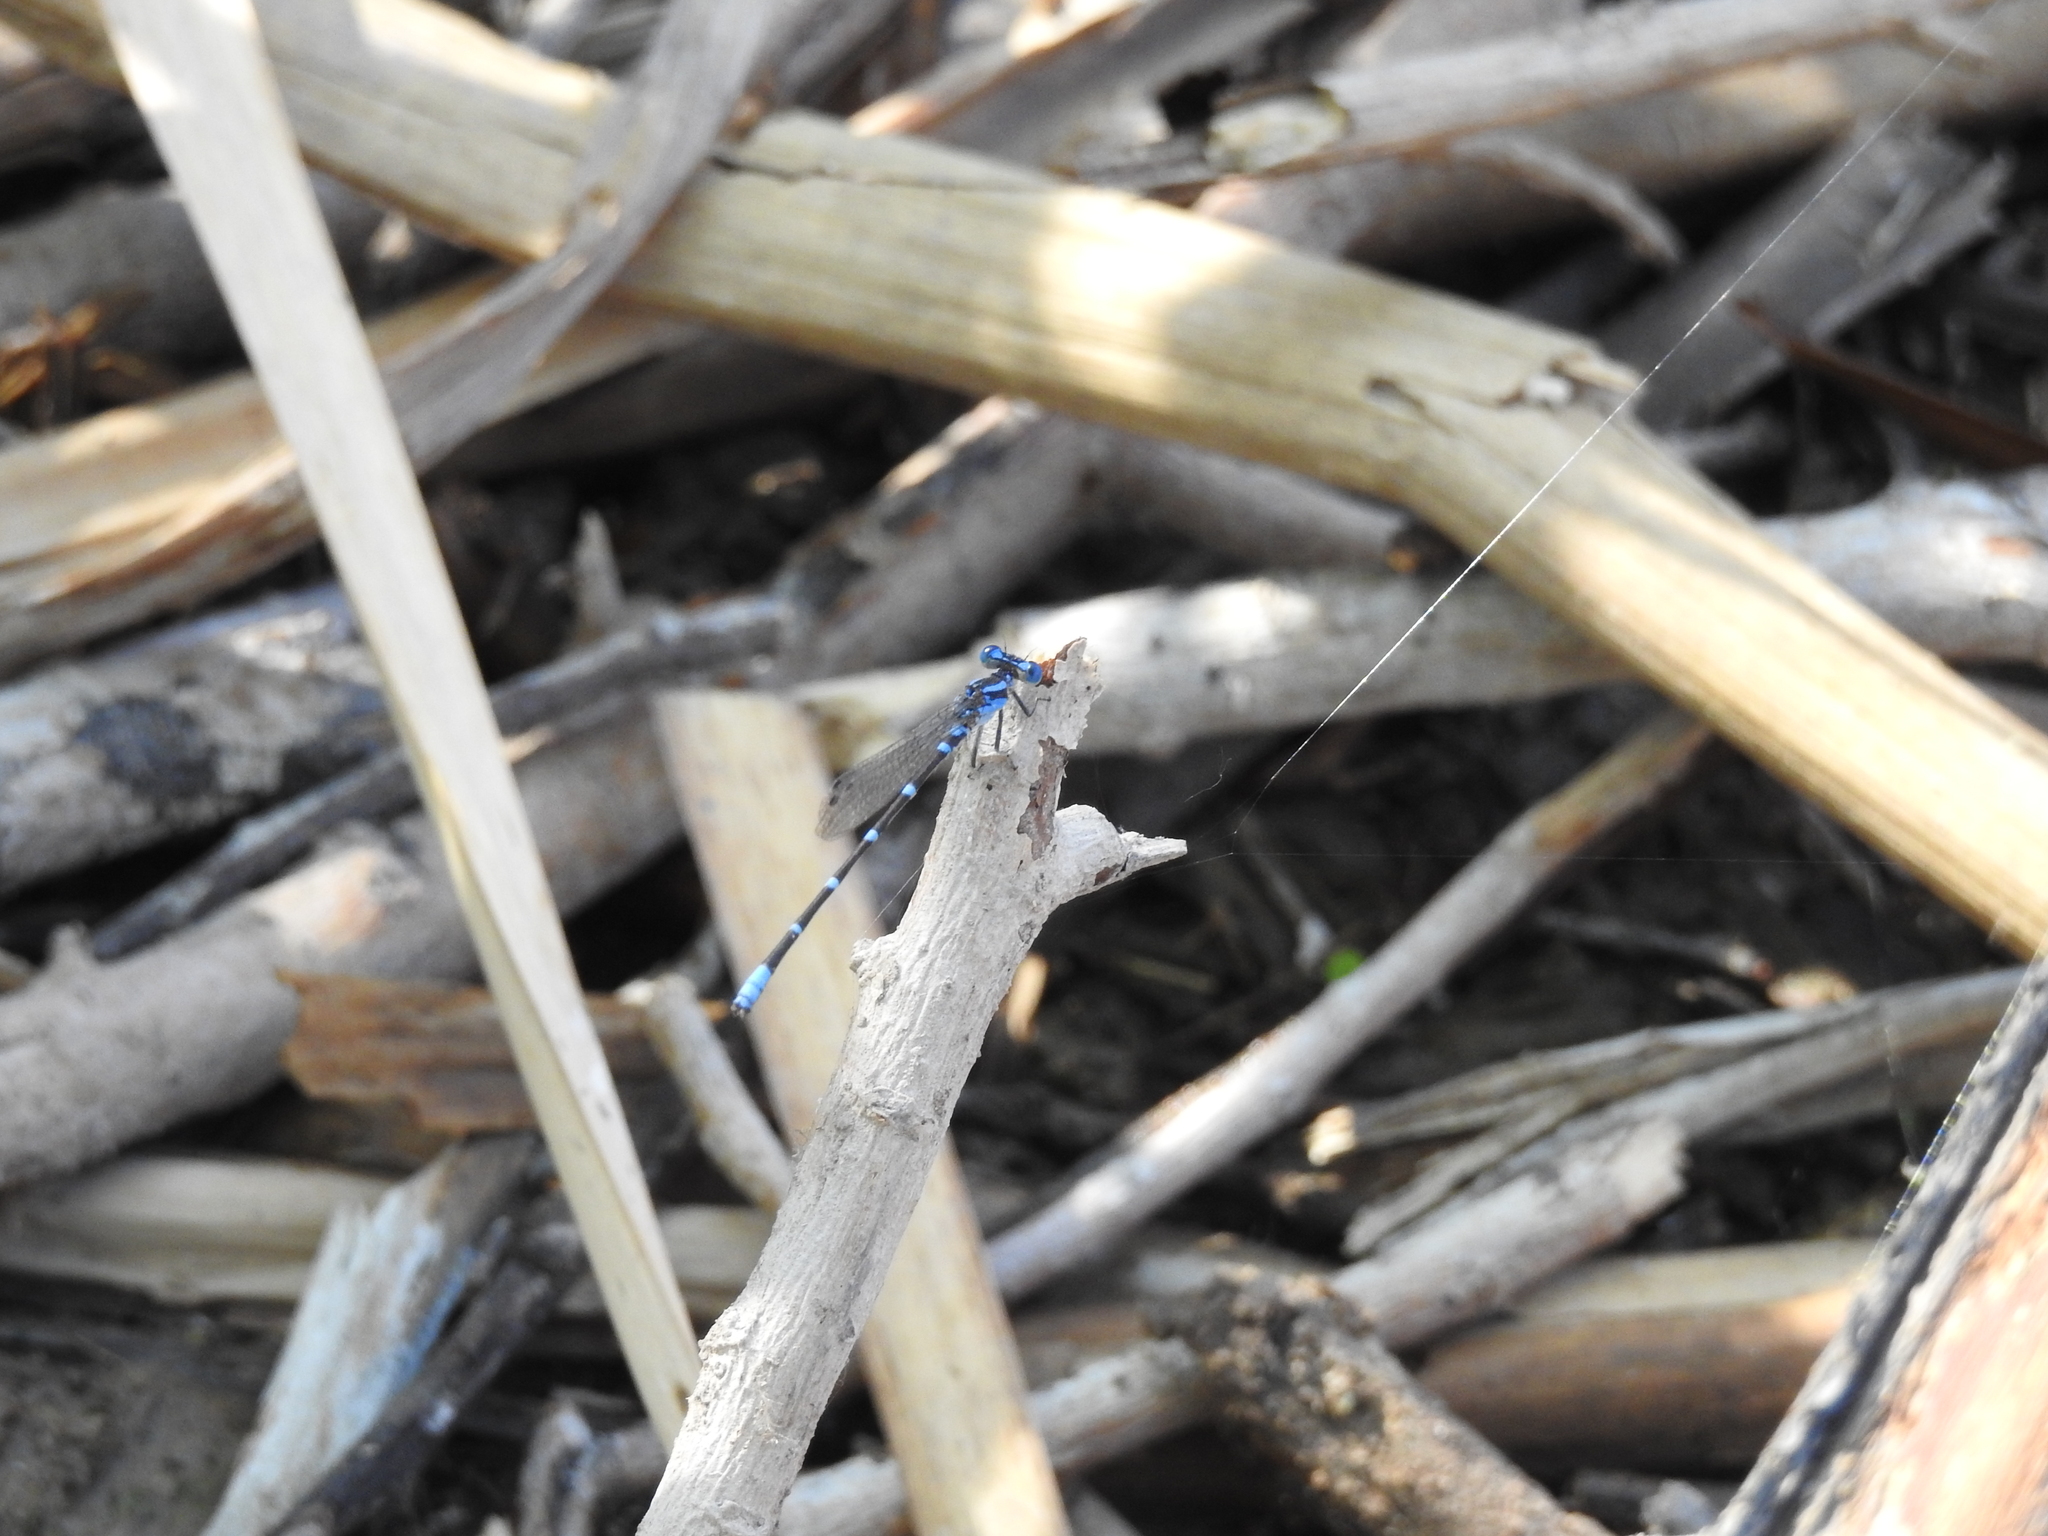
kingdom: Animalia
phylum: Arthropoda
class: Insecta
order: Odonata
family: Coenagrionidae
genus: Argia
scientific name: Argia sedula
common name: Blue-ringed dancer
